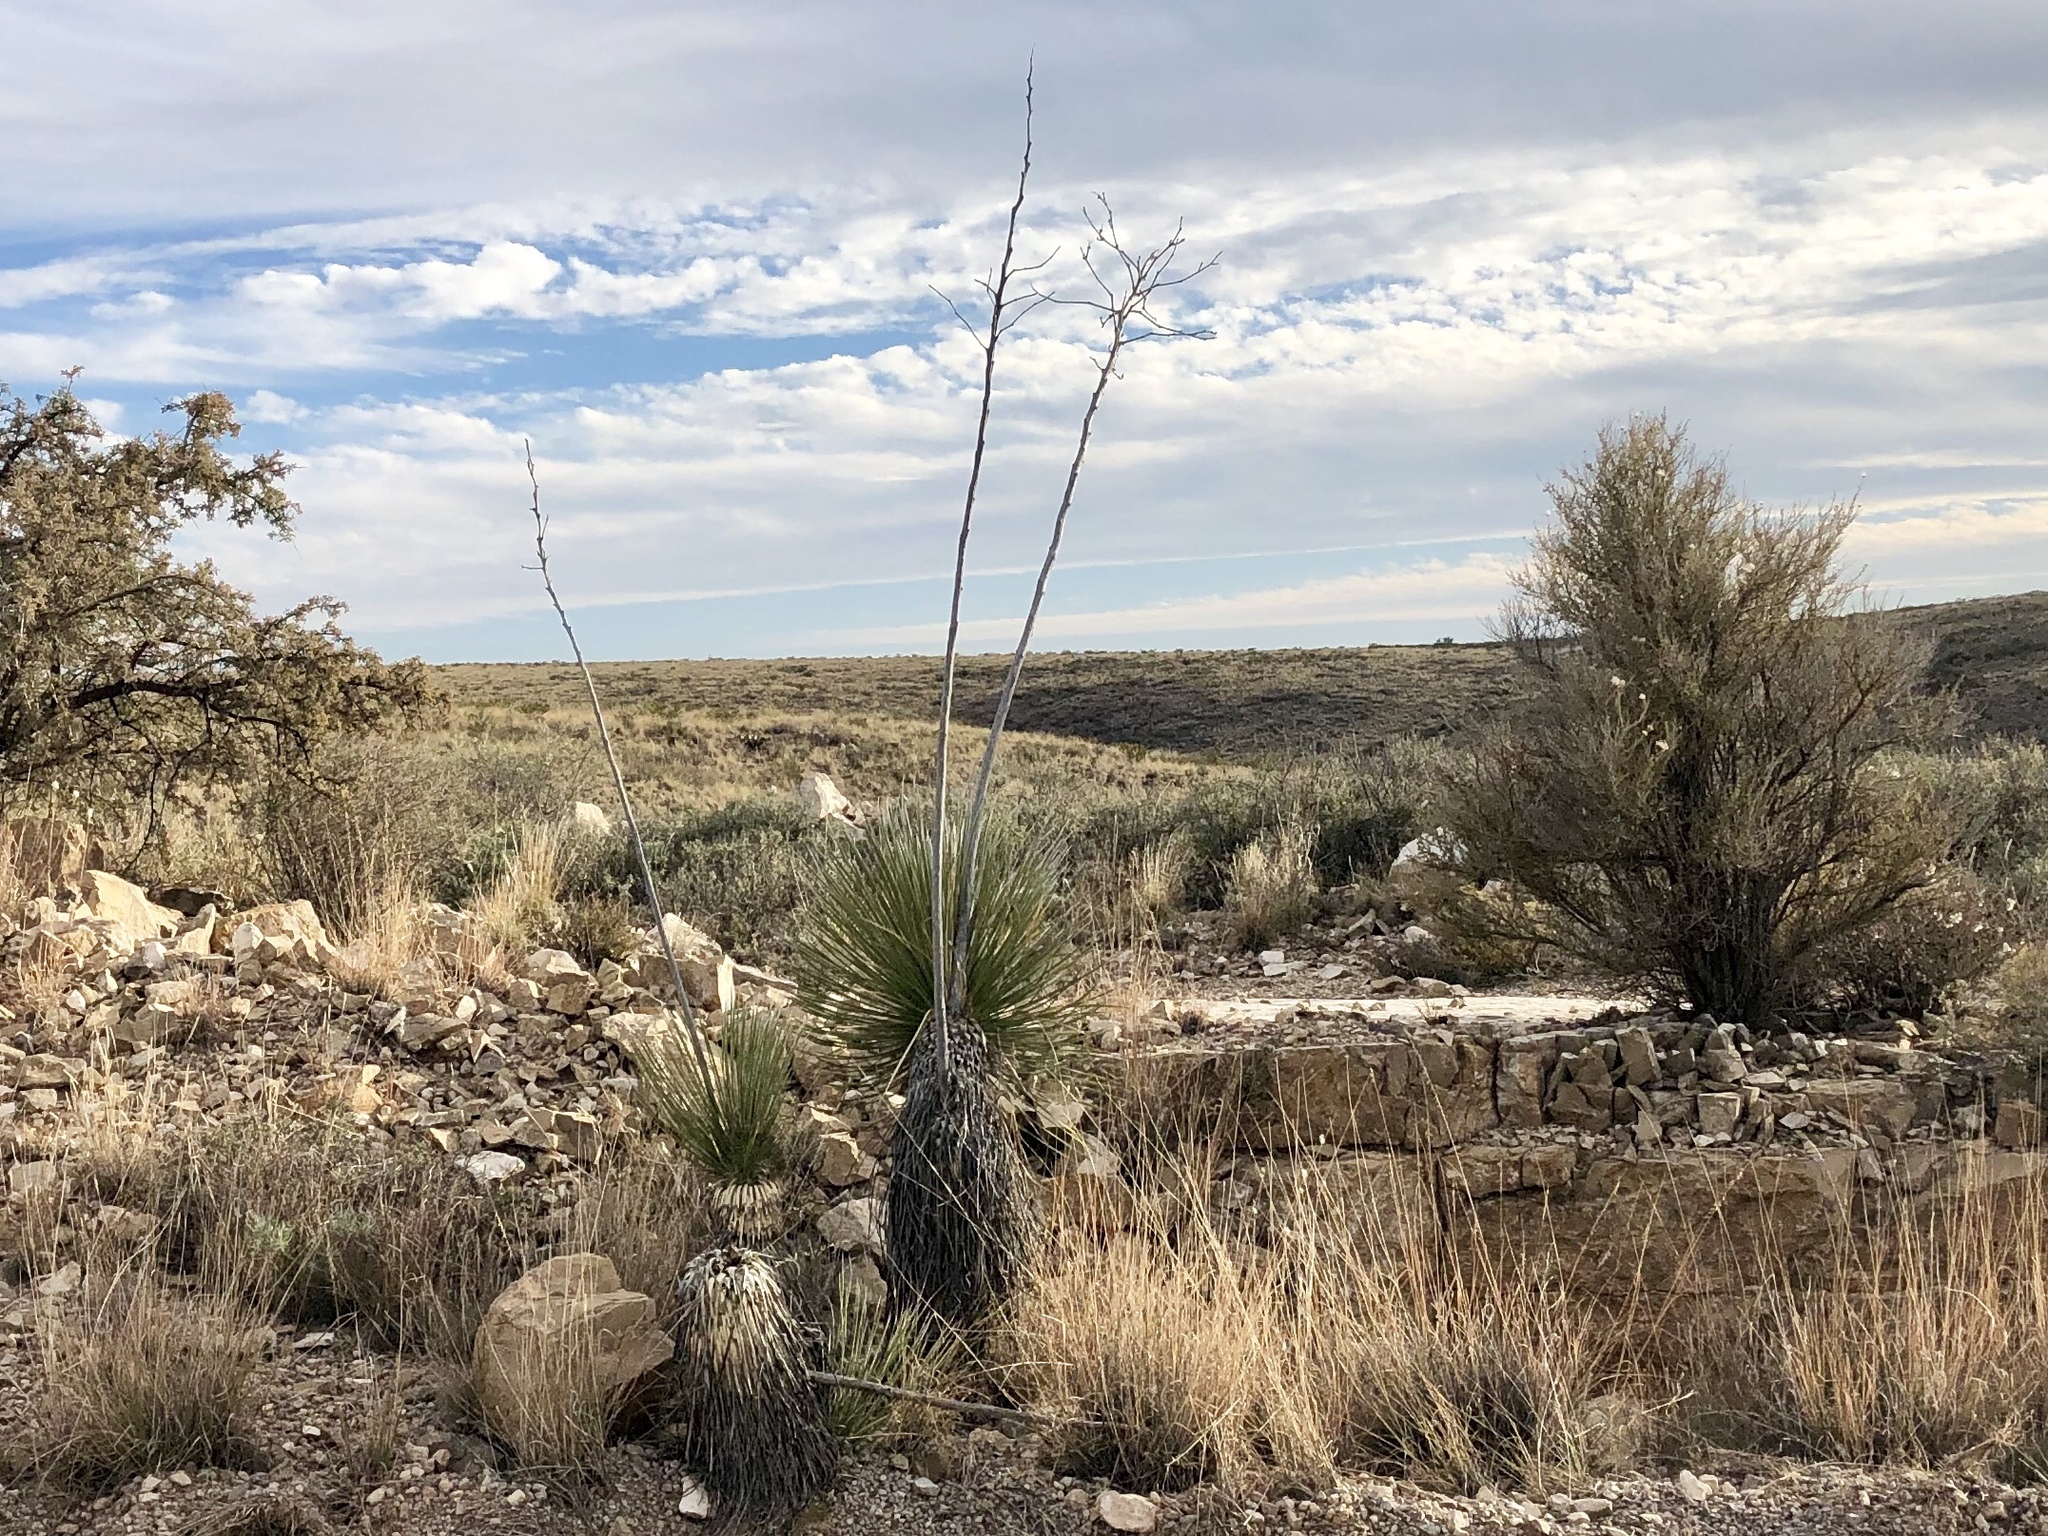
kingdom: Plantae
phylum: Tracheophyta
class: Liliopsida
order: Asparagales
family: Asparagaceae
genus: Yucca
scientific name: Yucca elata
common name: Palmella
